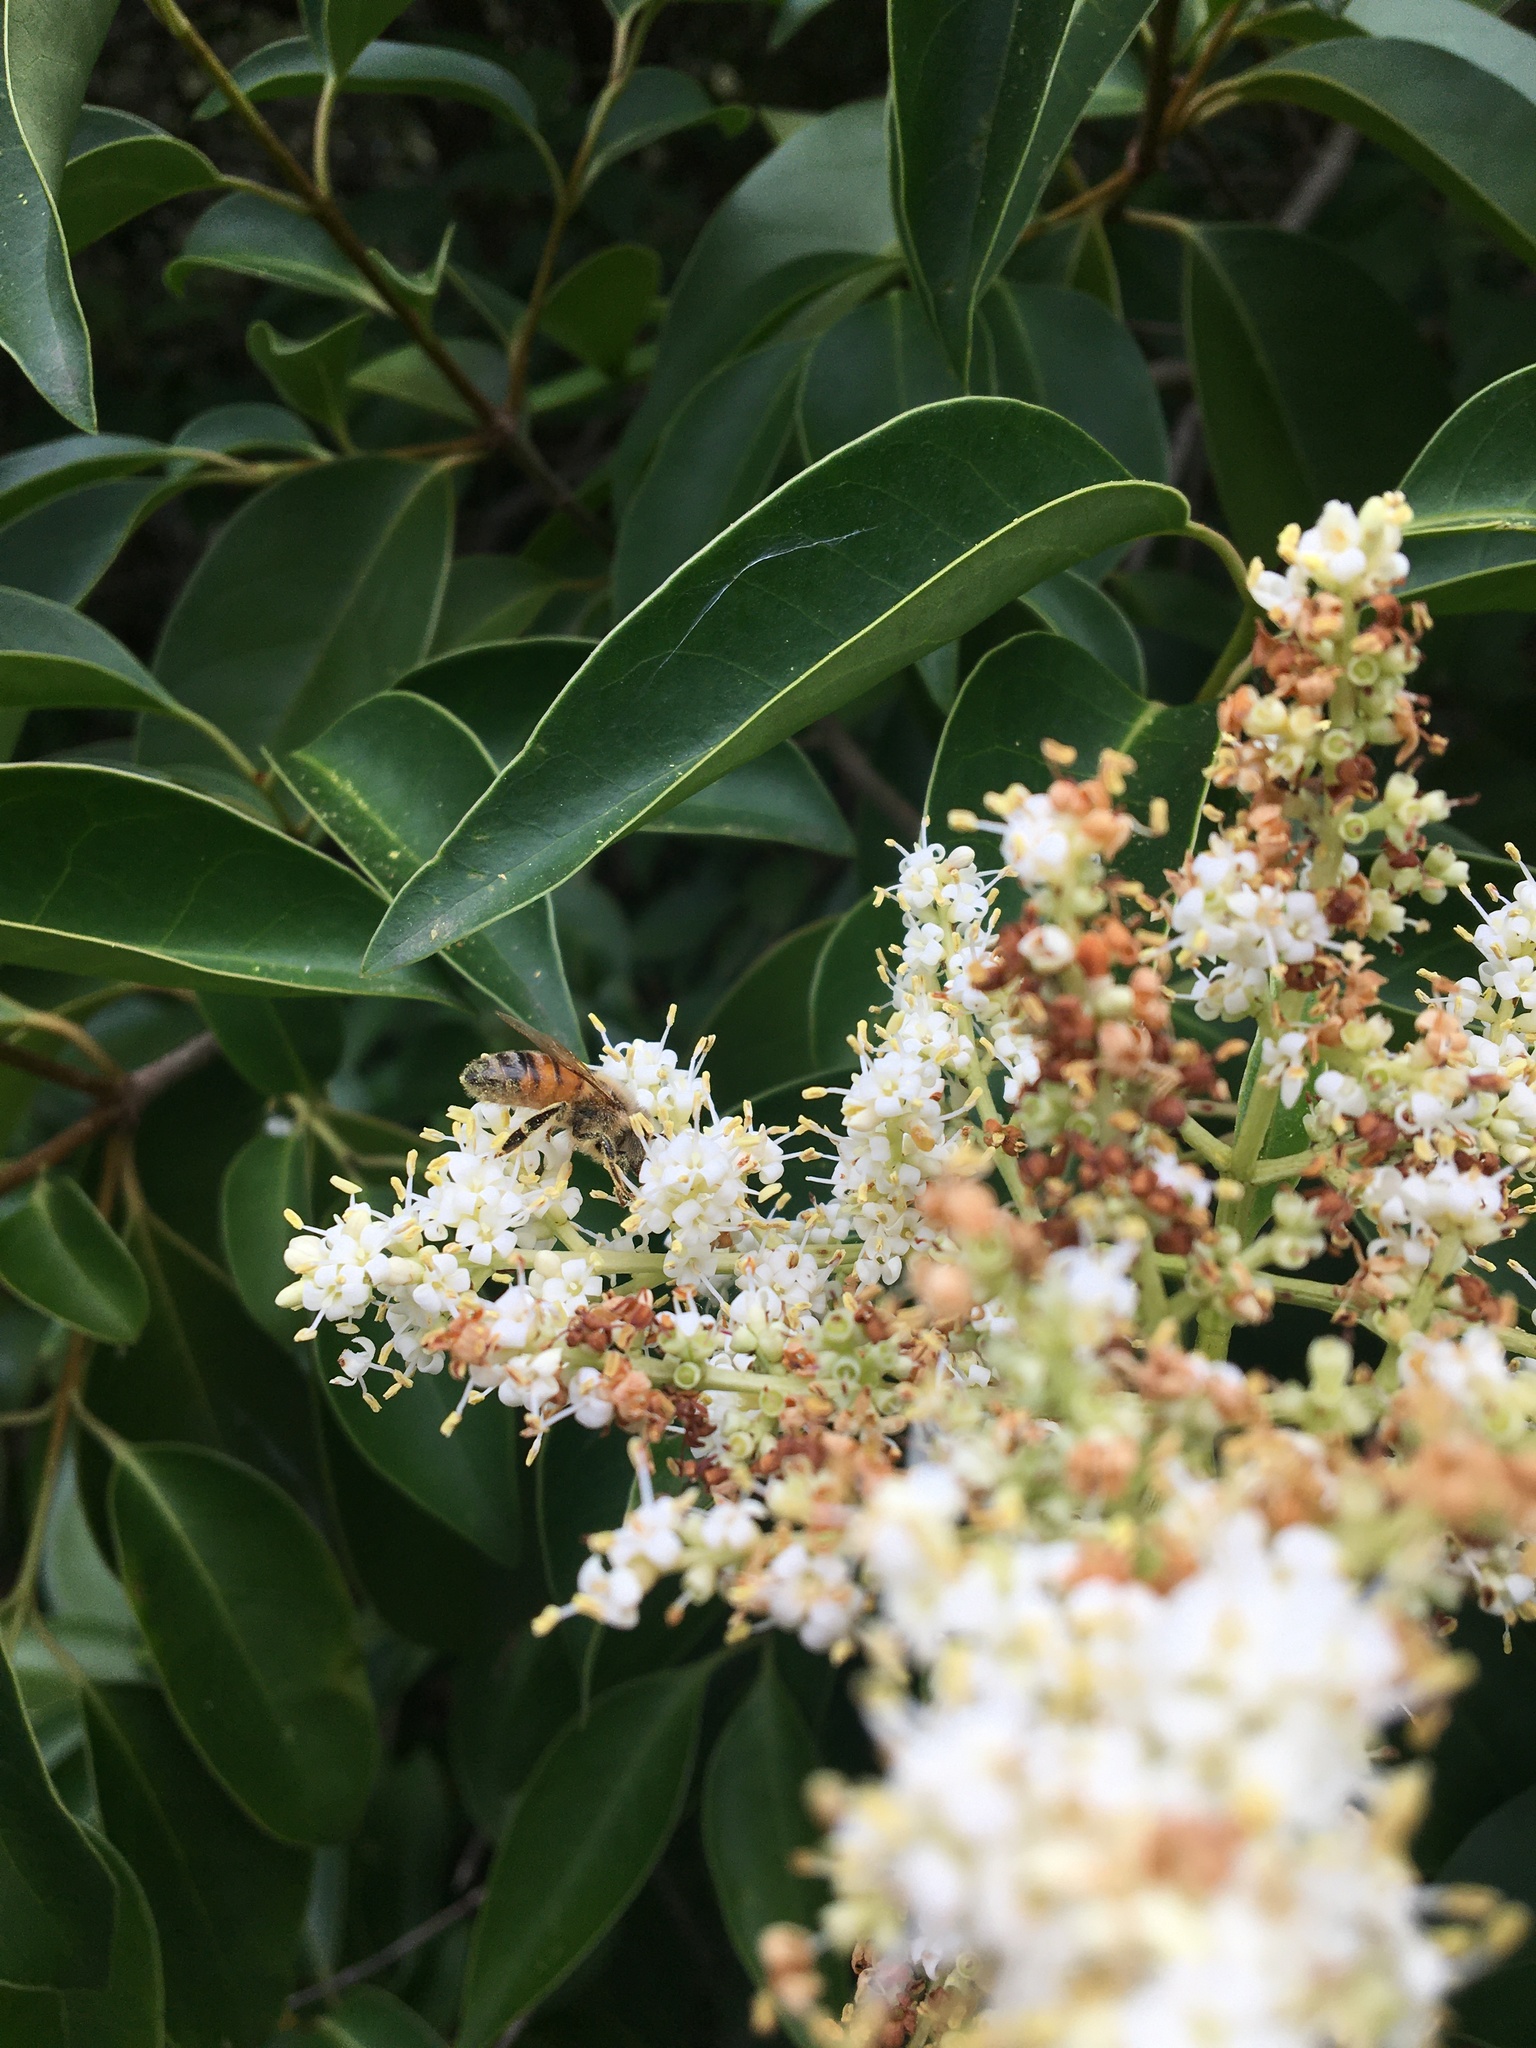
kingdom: Animalia
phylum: Arthropoda
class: Insecta
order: Hymenoptera
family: Apidae
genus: Apis
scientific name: Apis mellifera
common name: Honey bee
